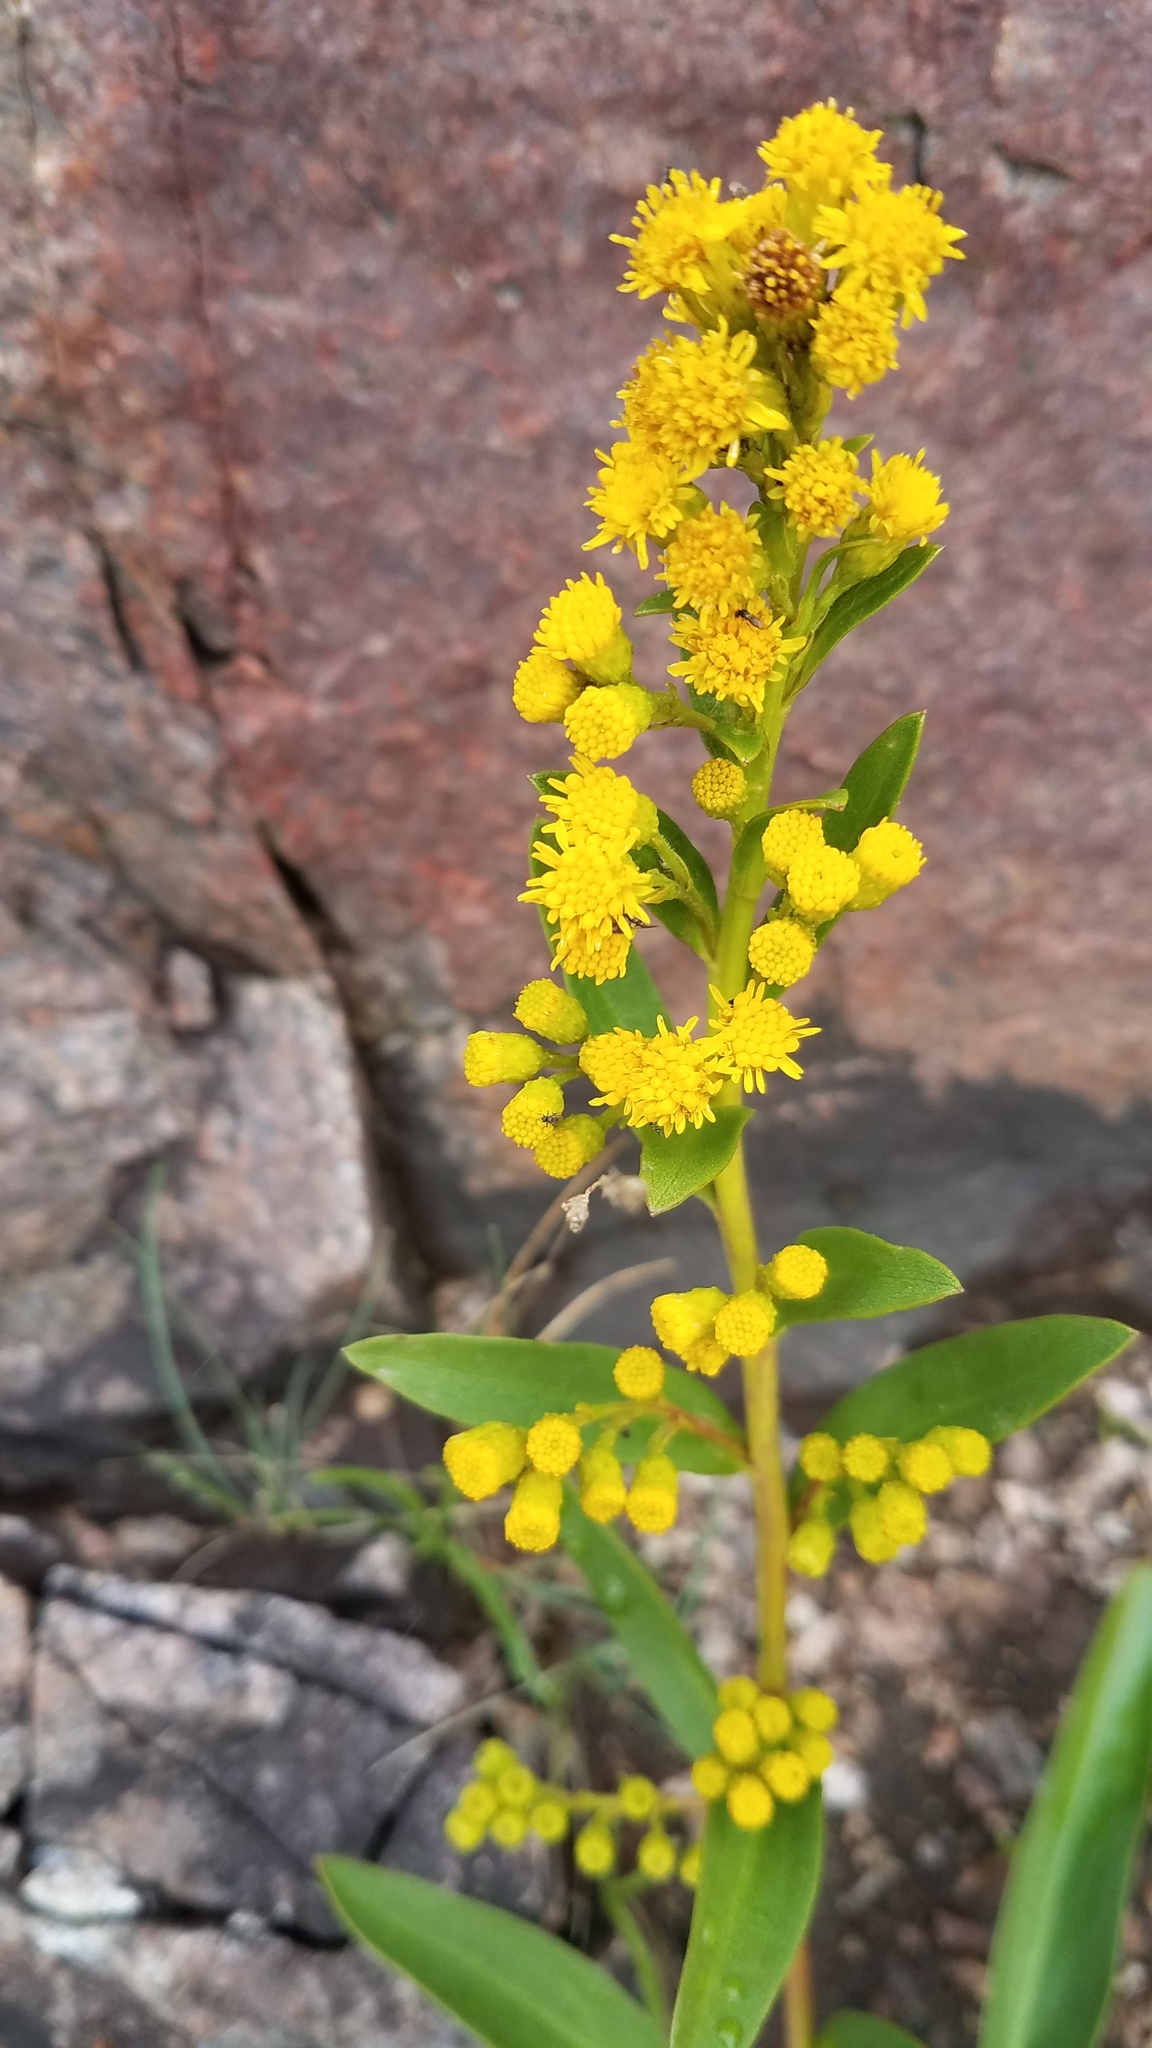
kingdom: Plantae
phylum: Tracheophyta
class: Magnoliopsida
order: Asterales
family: Asteraceae
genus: Solidago
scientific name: Solidago sempervirens
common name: Salt-marsh goldenrod
